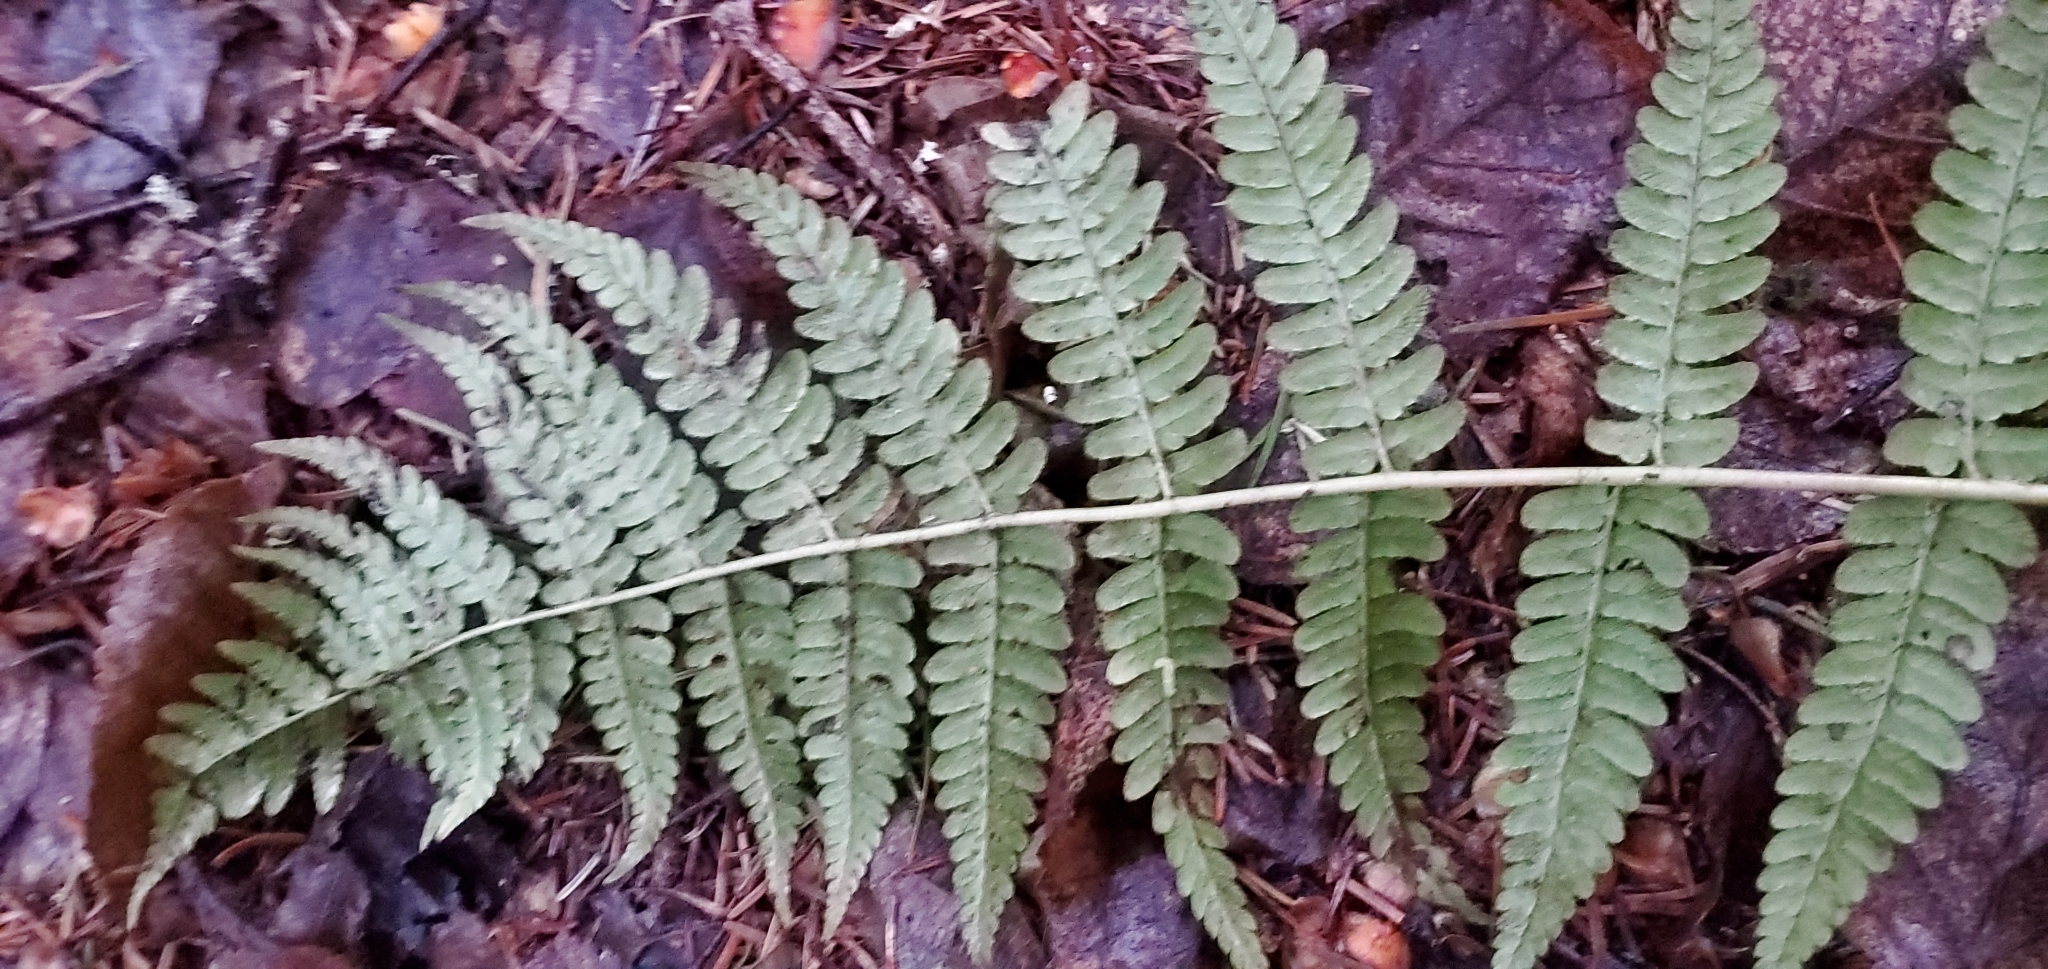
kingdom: Plantae
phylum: Tracheophyta
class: Polypodiopsida
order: Polypodiales
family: Dryopteridaceae
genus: Dryopteris
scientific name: Dryopteris marginalis
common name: Marginal wood fern
